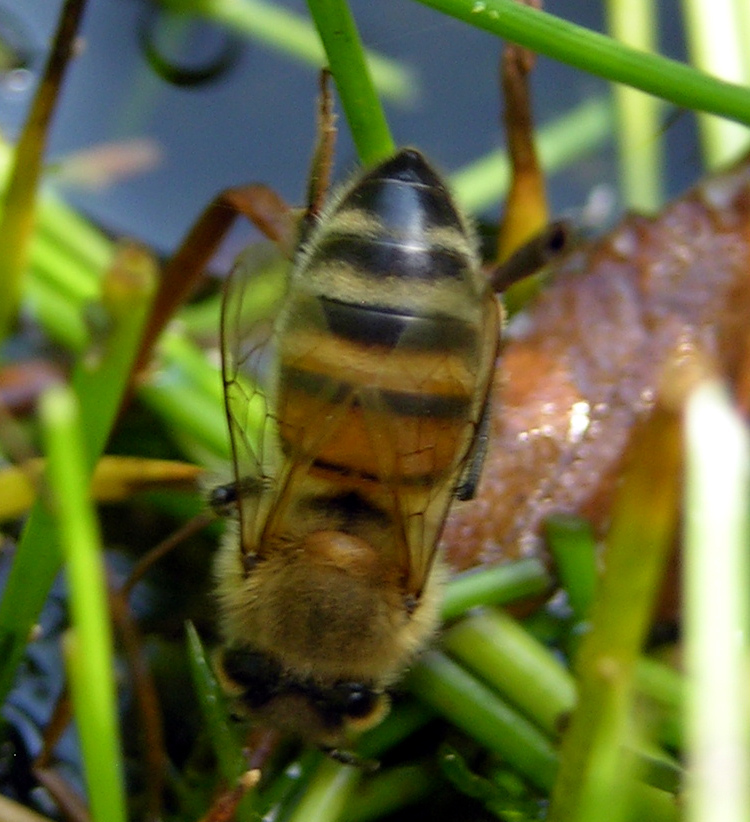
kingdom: Animalia
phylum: Arthropoda
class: Insecta
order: Hymenoptera
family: Apidae
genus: Apis
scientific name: Apis mellifera
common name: Honey bee
